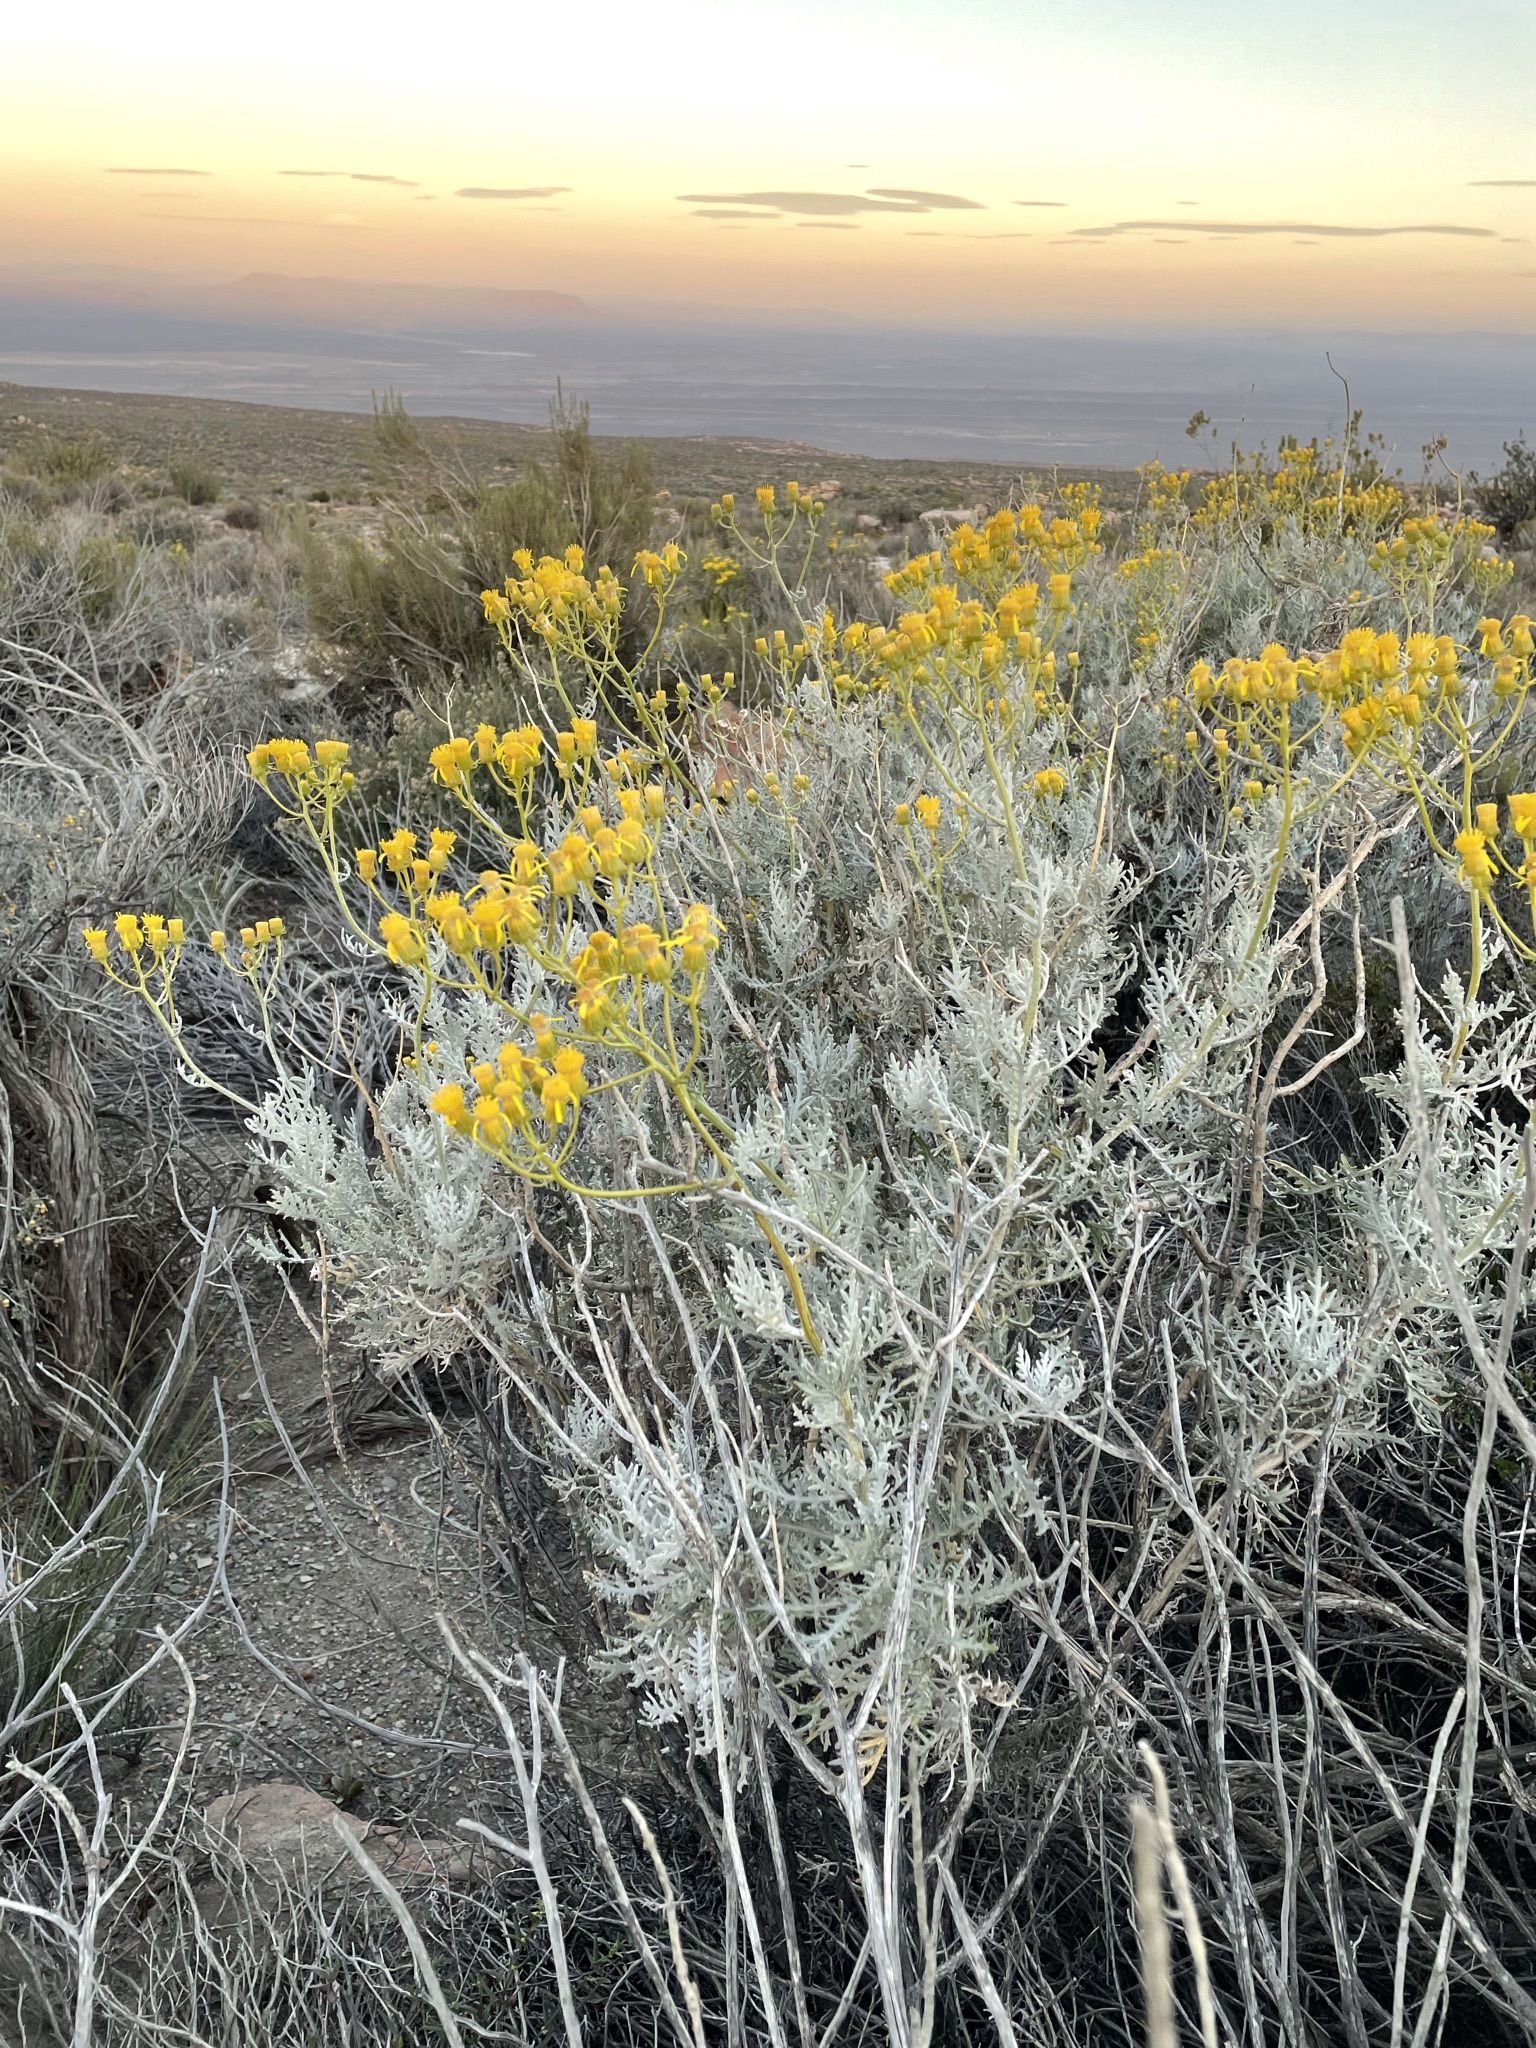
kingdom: Plantae
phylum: Tracheophyta
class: Magnoliopsida
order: Asterales
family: Asteraceae
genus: Senecio
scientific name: Senecio cinerascens
